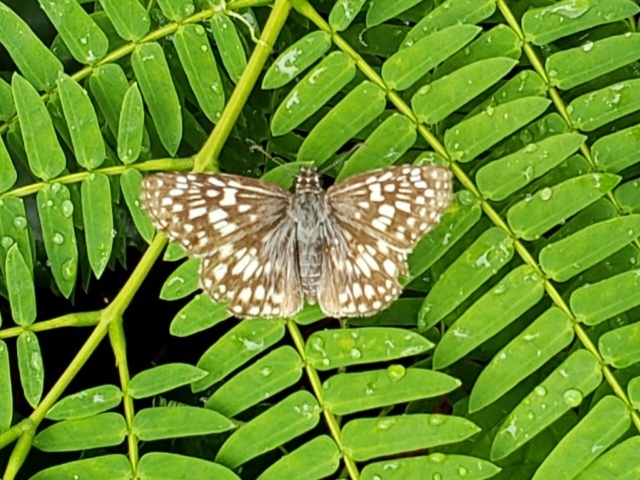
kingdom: Animalia
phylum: Arthropoda
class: Insecta
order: Lepidoptera
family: Hesperiidae
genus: Pyrgus
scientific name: Pyrgus oileus
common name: Tropical checkered-skipper
